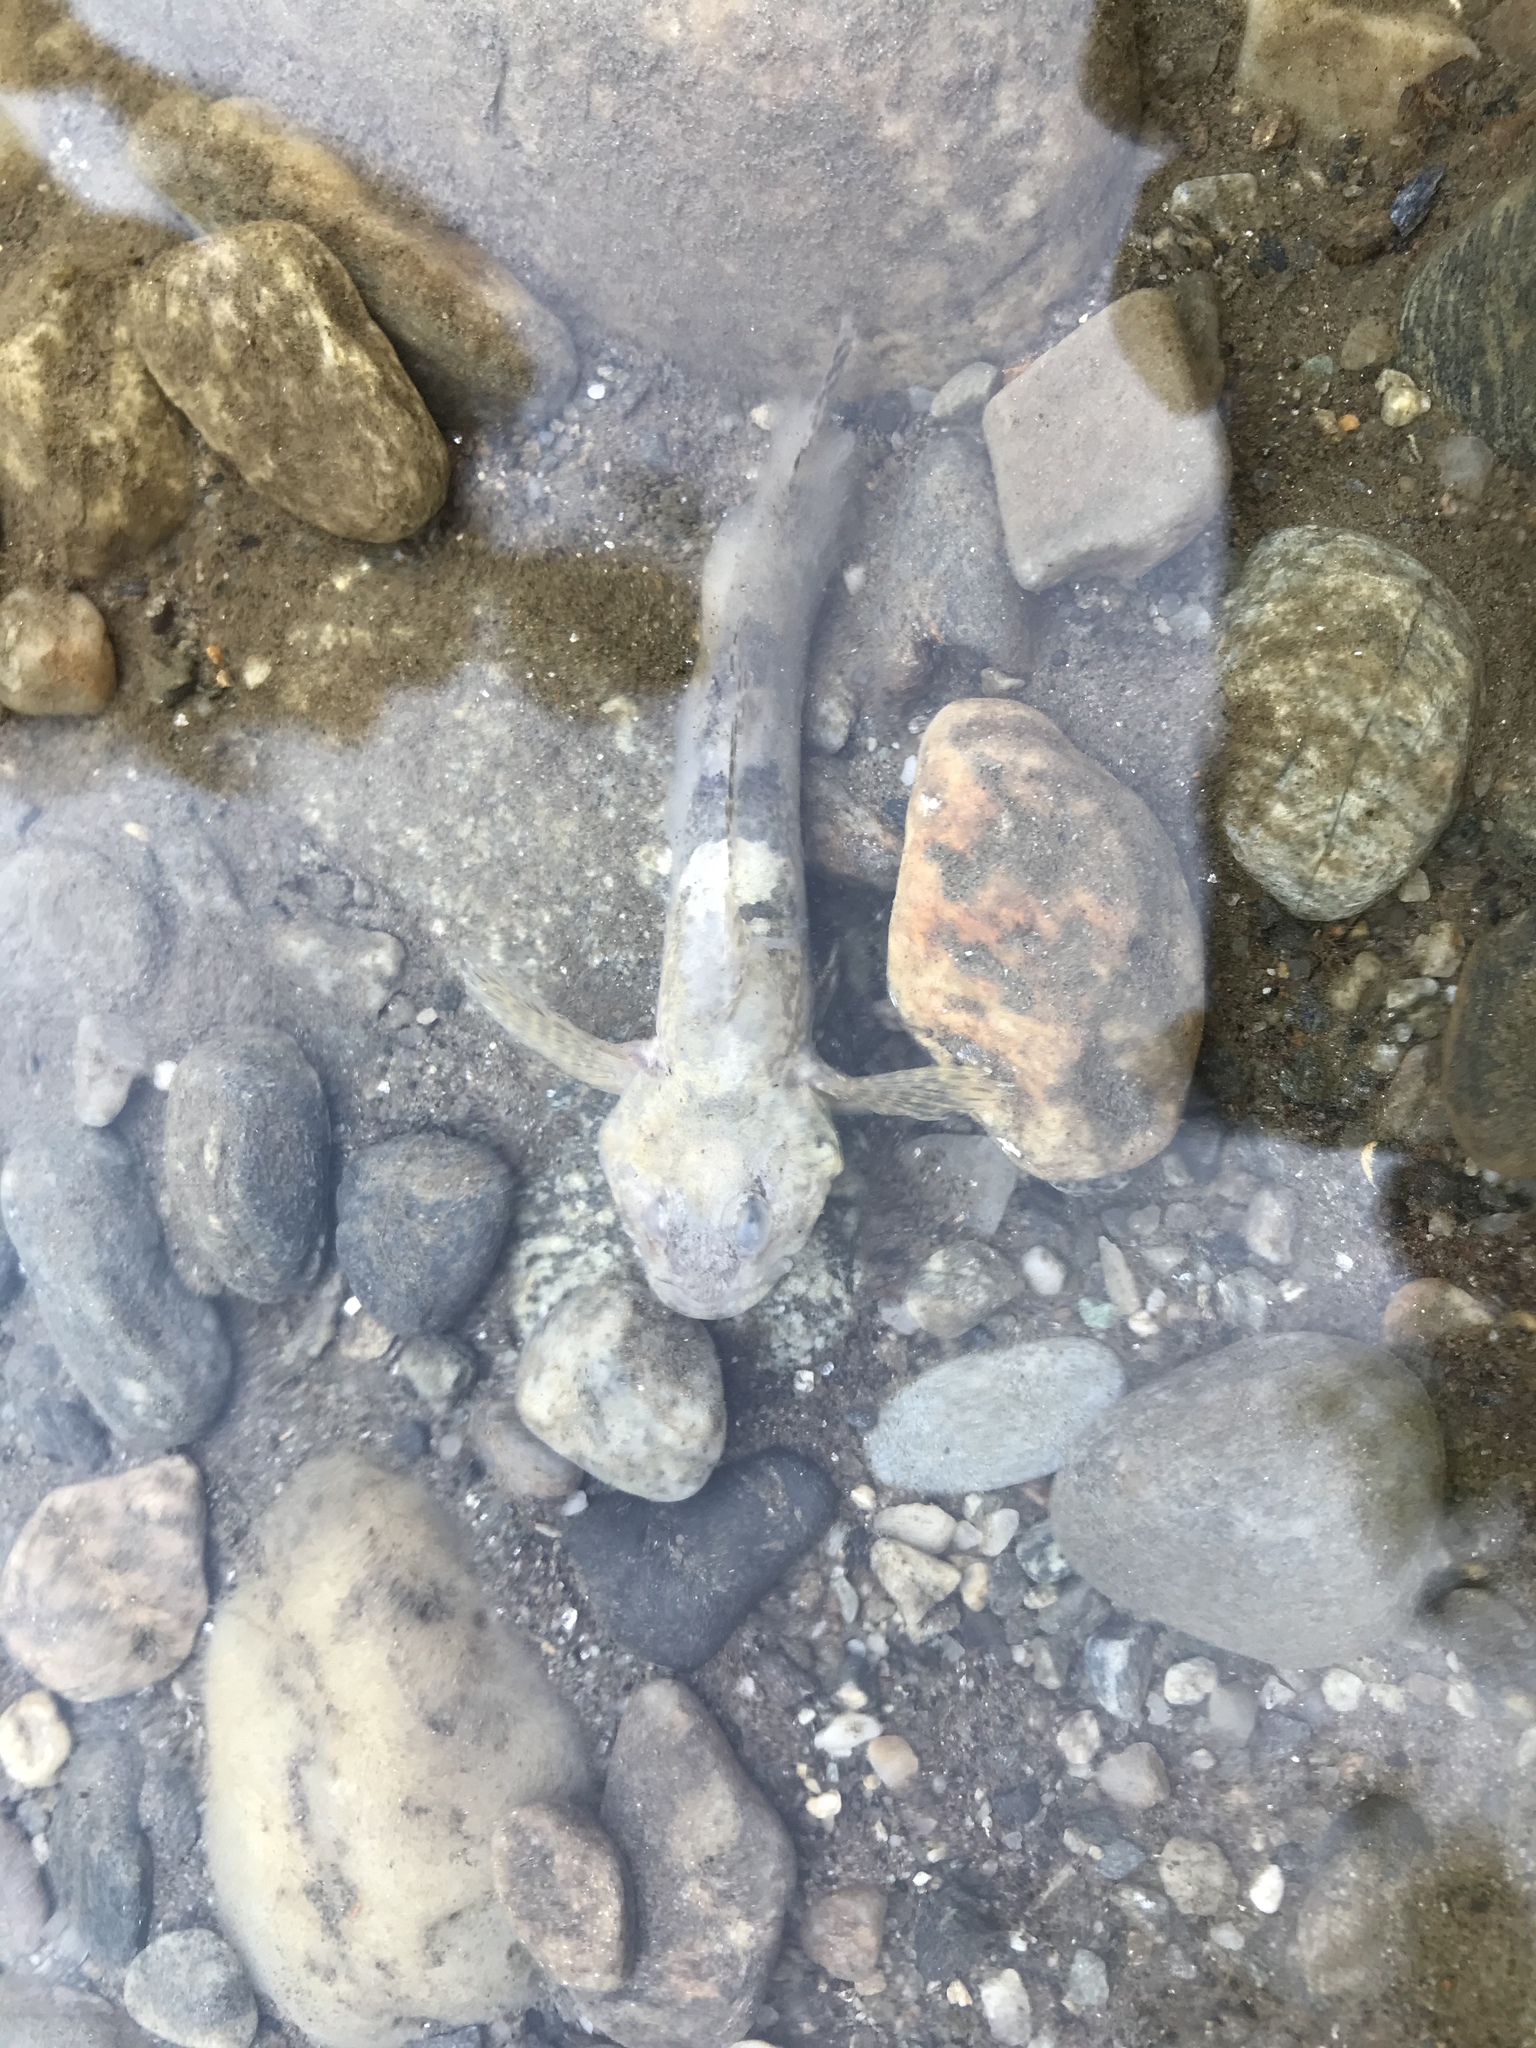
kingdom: Animalia
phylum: Chordata
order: Scorpaeniformes
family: Cottidae
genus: Cottus
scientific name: Cottus gobio
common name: Bullhead
